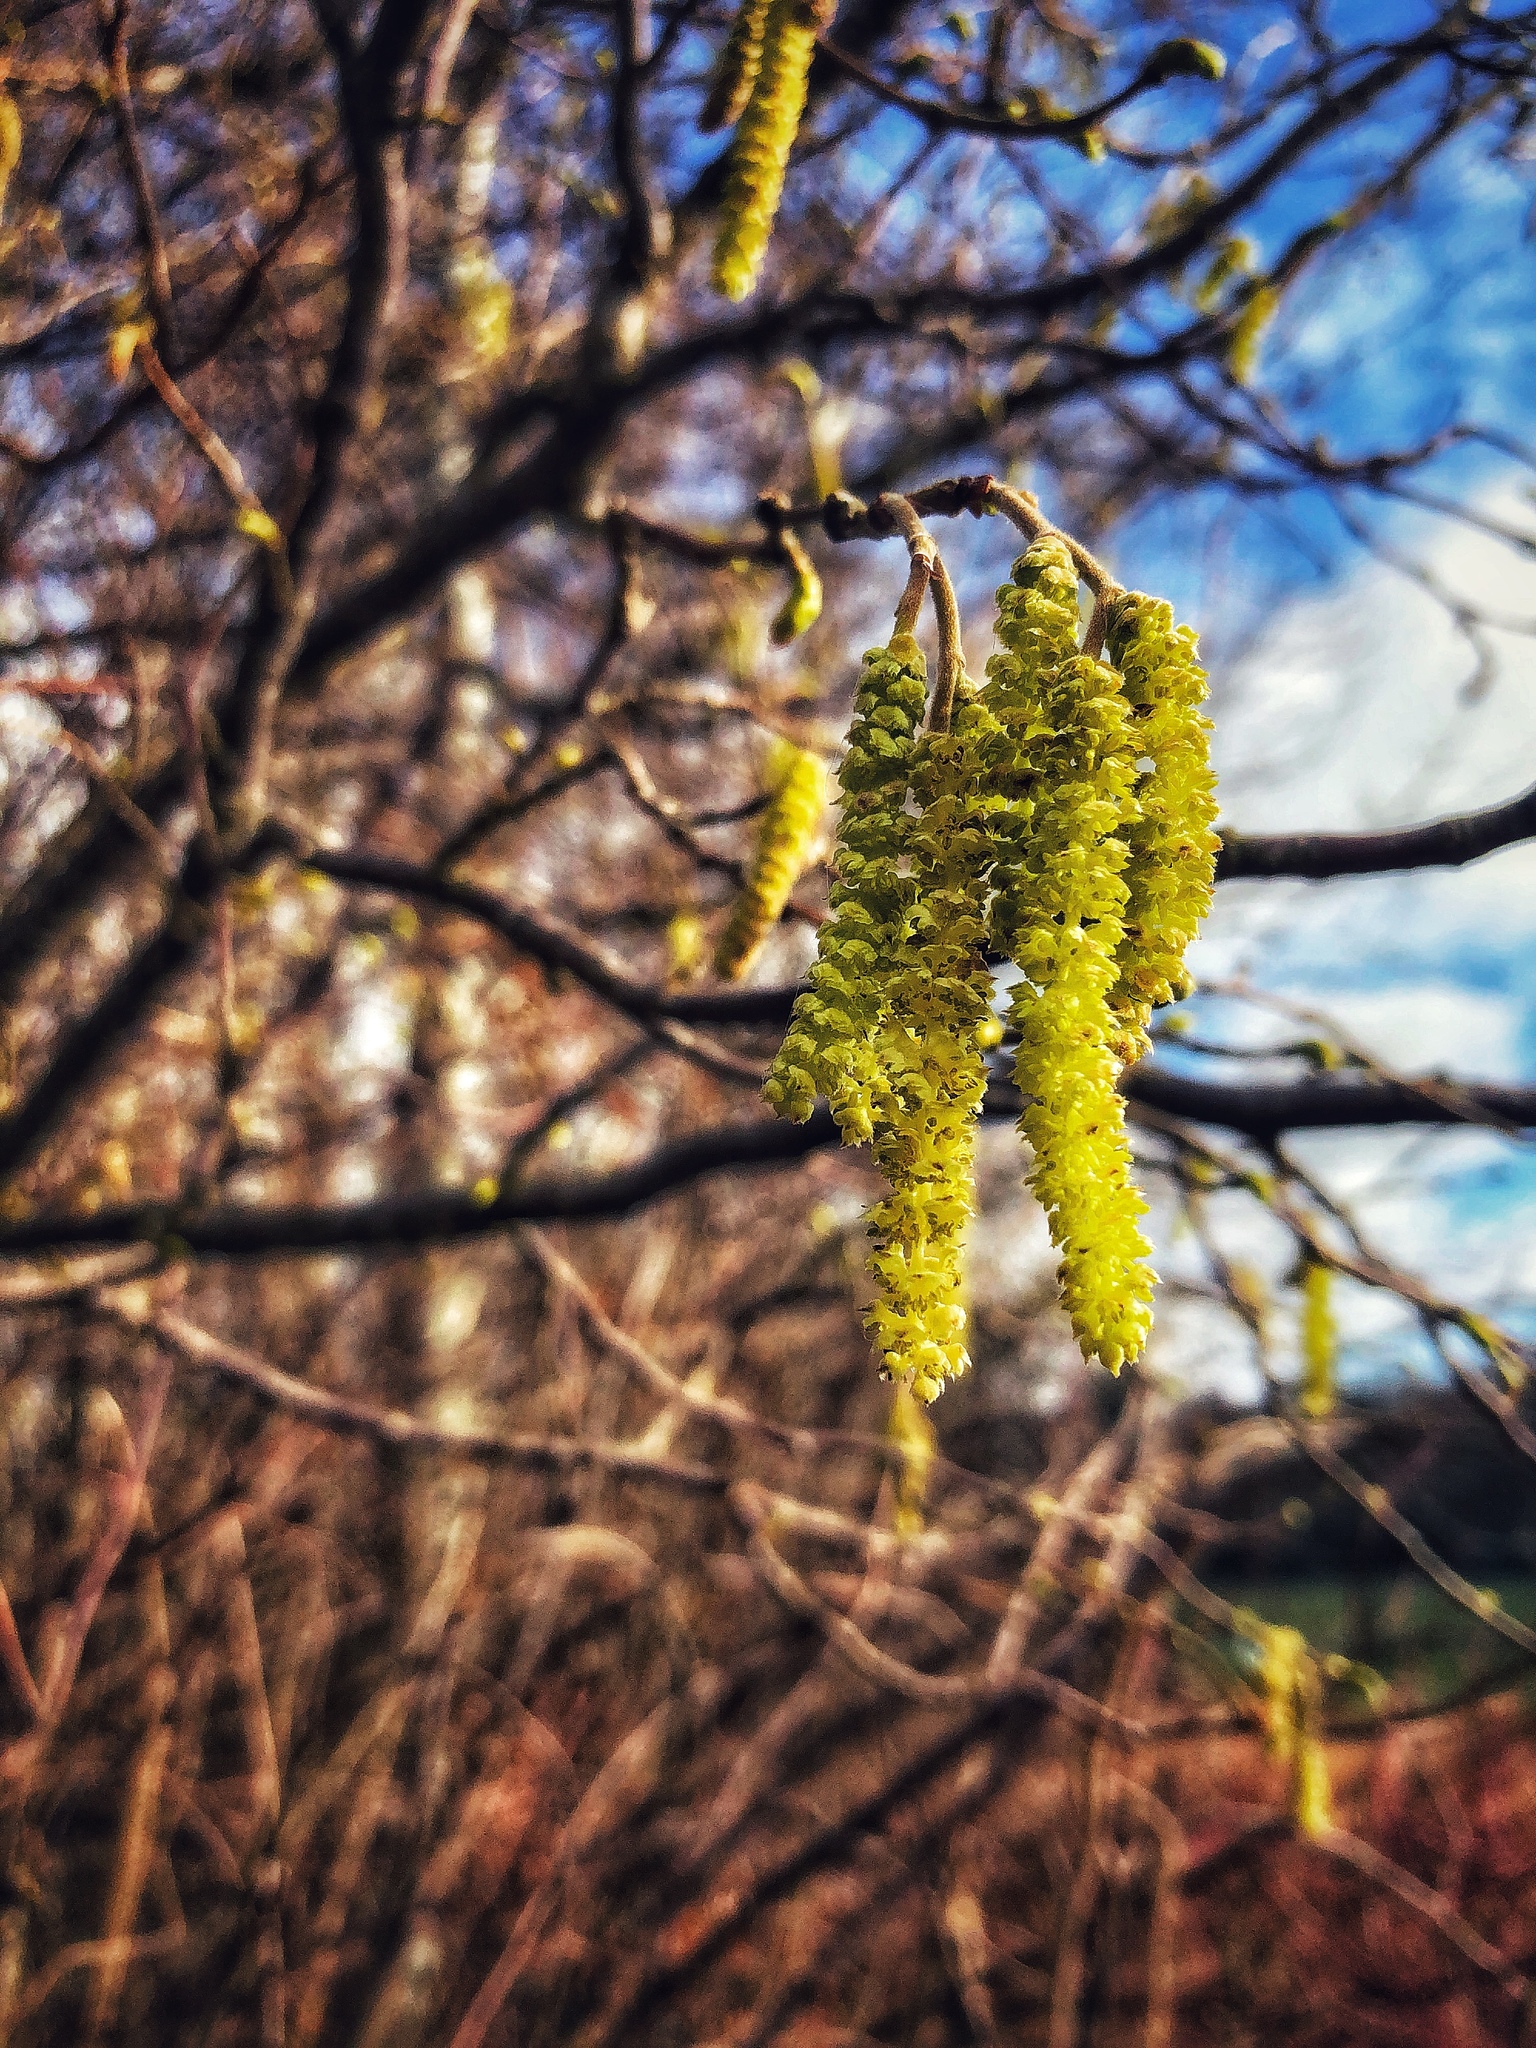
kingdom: Plantae
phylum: Tracheophyta
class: Magnoliopsida
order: Fagales
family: Betulaceae
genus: Corylus
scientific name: Corylus avellana
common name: European hazel
